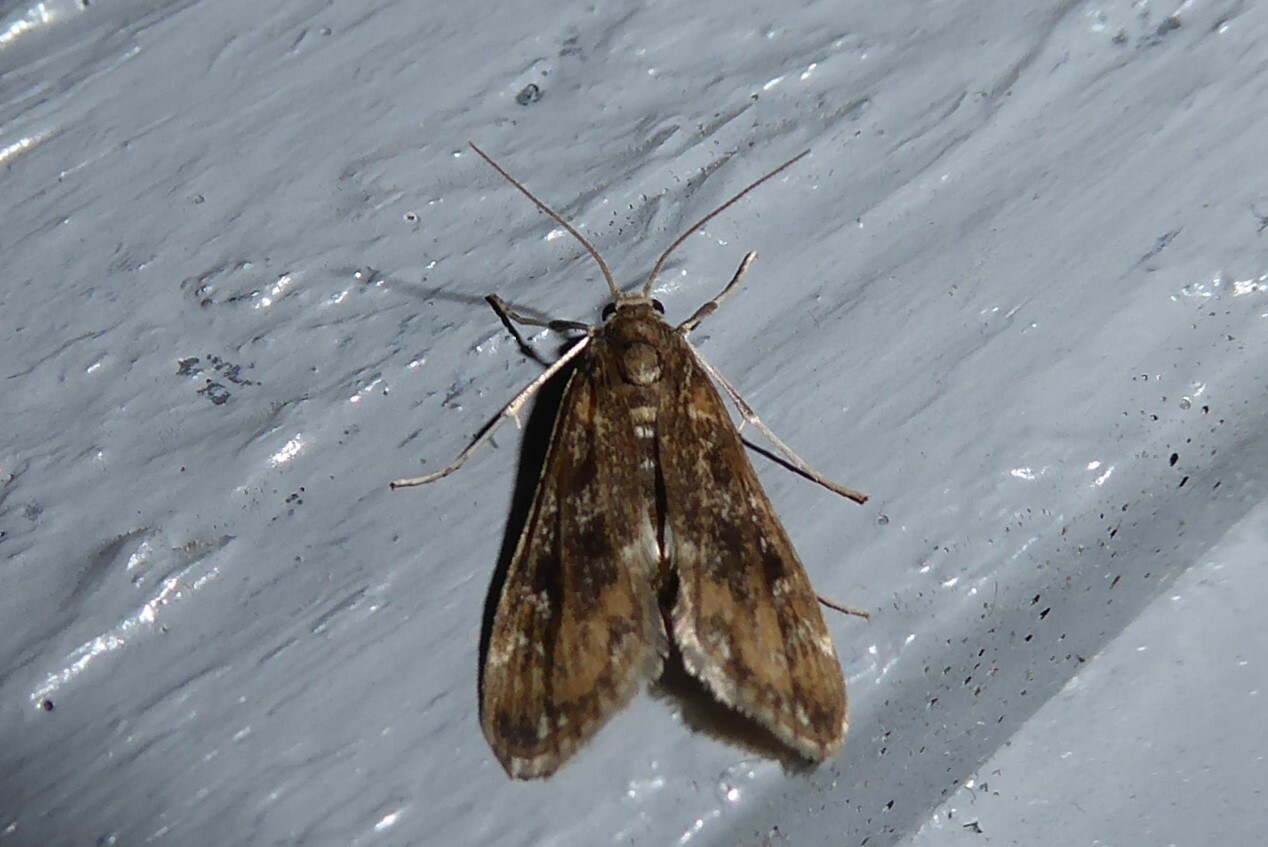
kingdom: Animalia
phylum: Arthropoda
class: Insecta
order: Lepidoptera
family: Crambidae
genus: Hygraula
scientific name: Hygraula nitens
